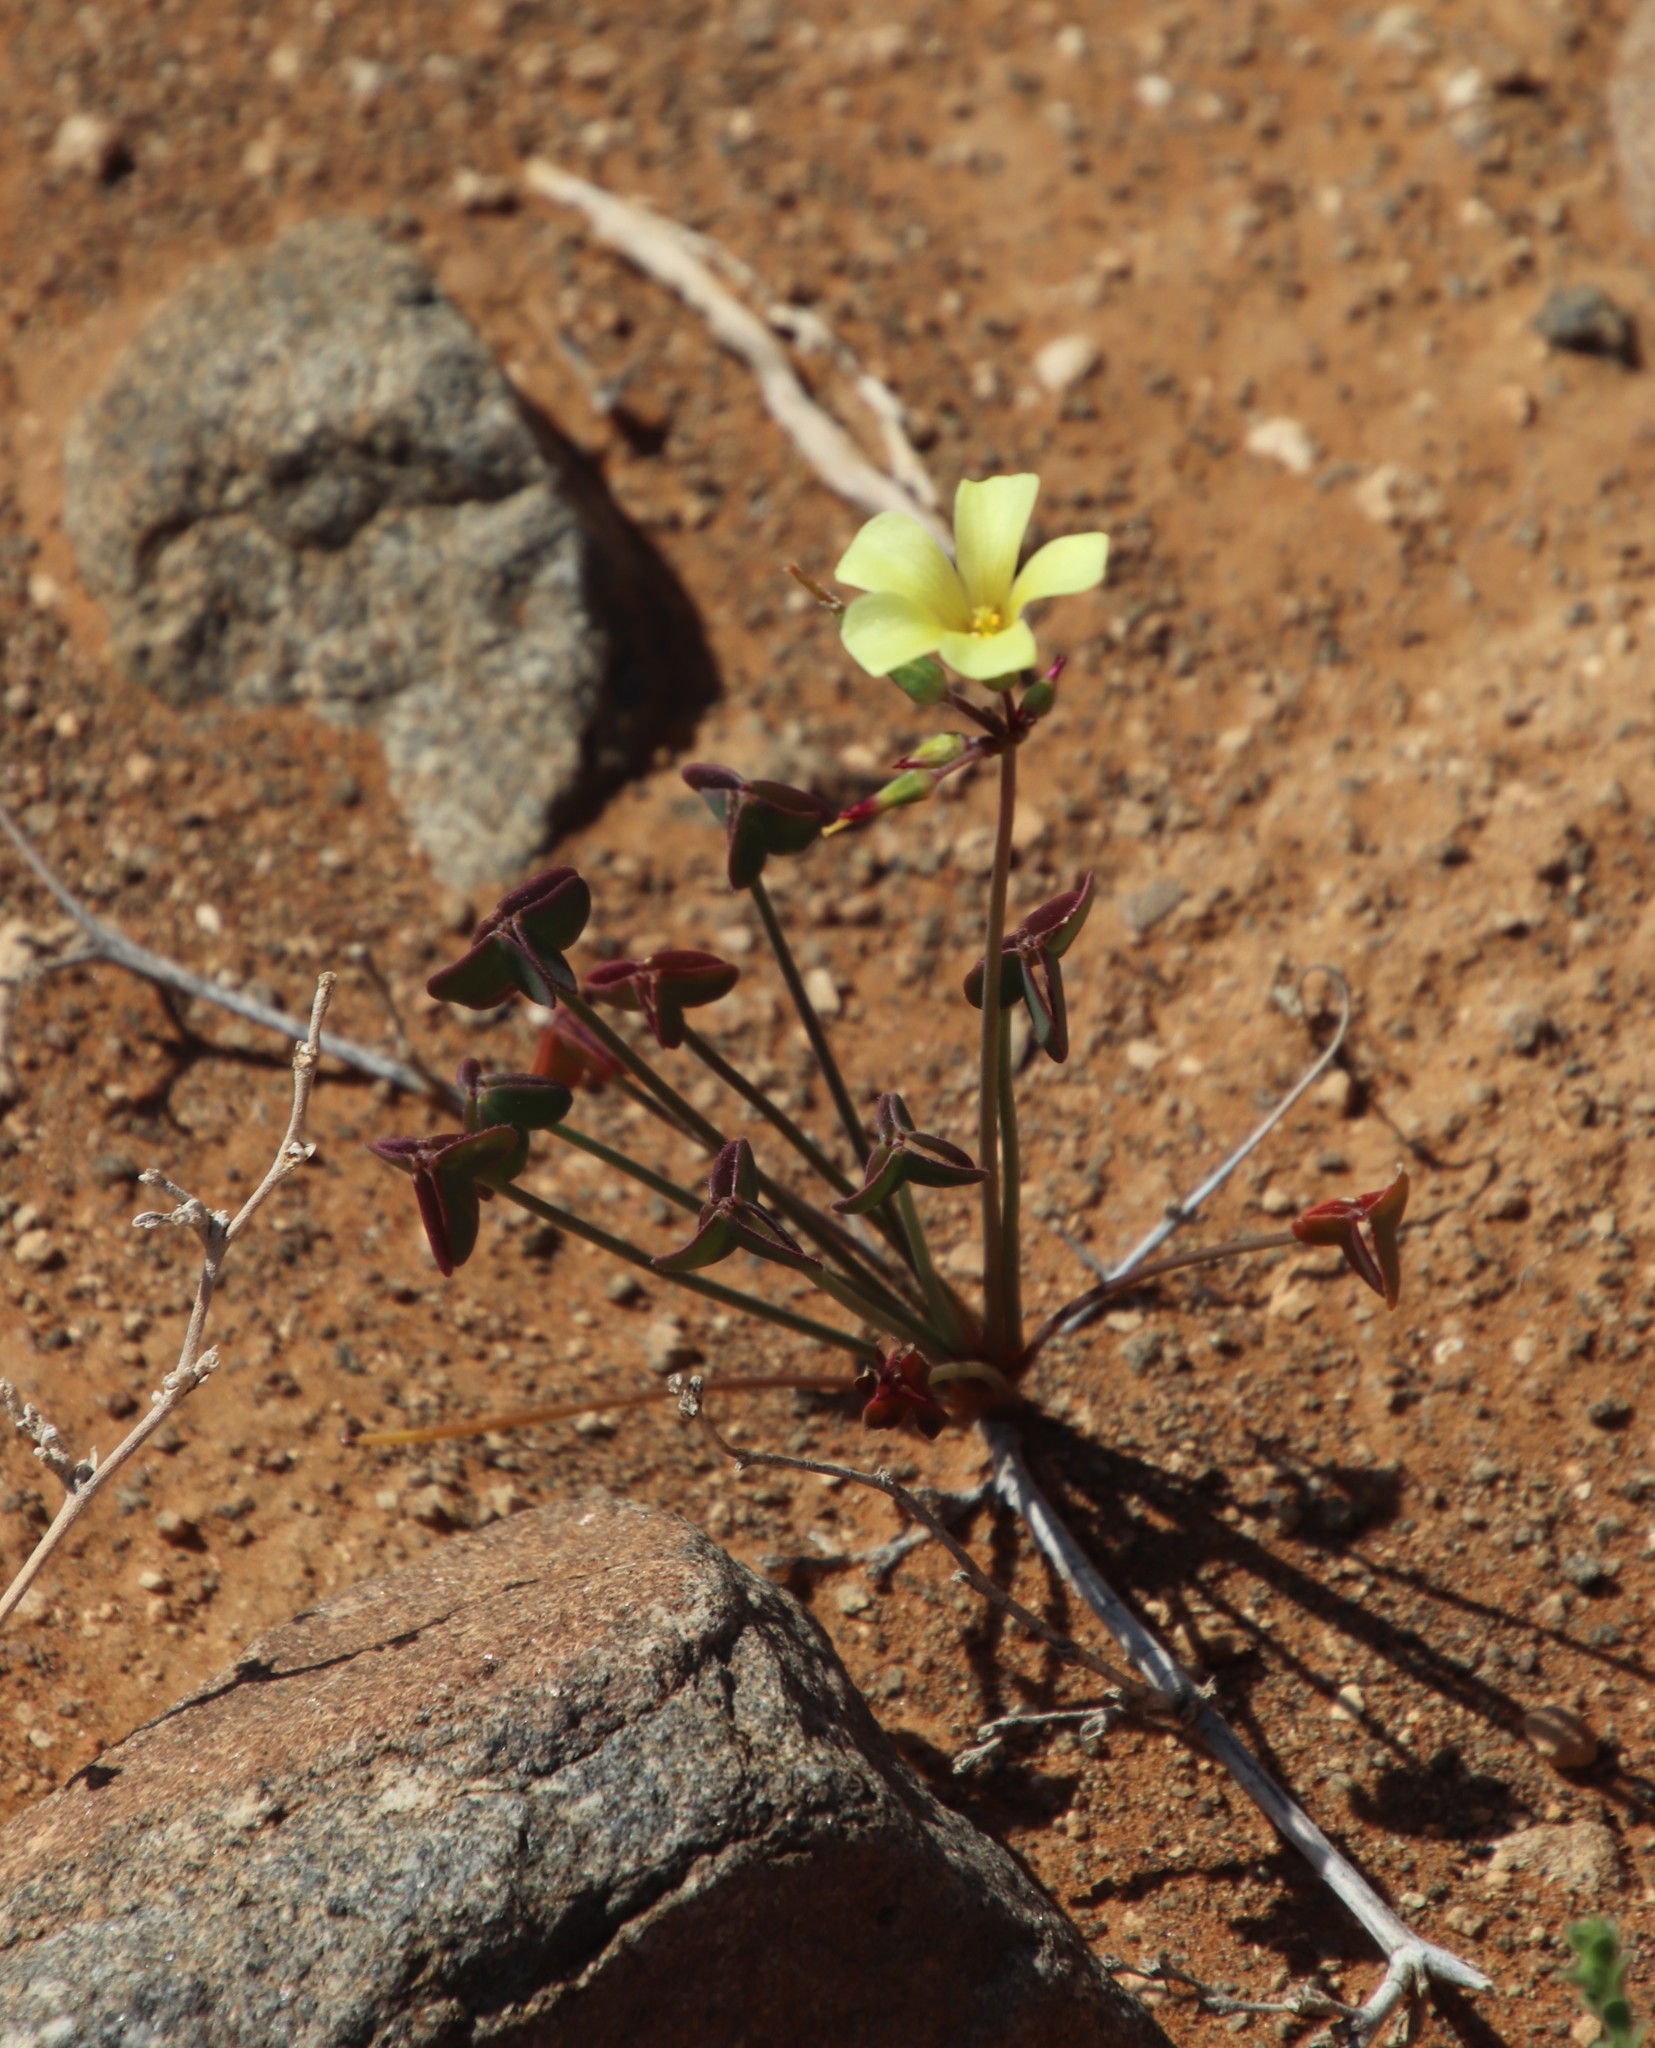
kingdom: Plantae
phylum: Tracheophyta
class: Magnoliopsida
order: Oxalidales
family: Oxalidaceae
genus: Oxalis
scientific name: Oxalis pes-caprae
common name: Bermuda-buttercup
